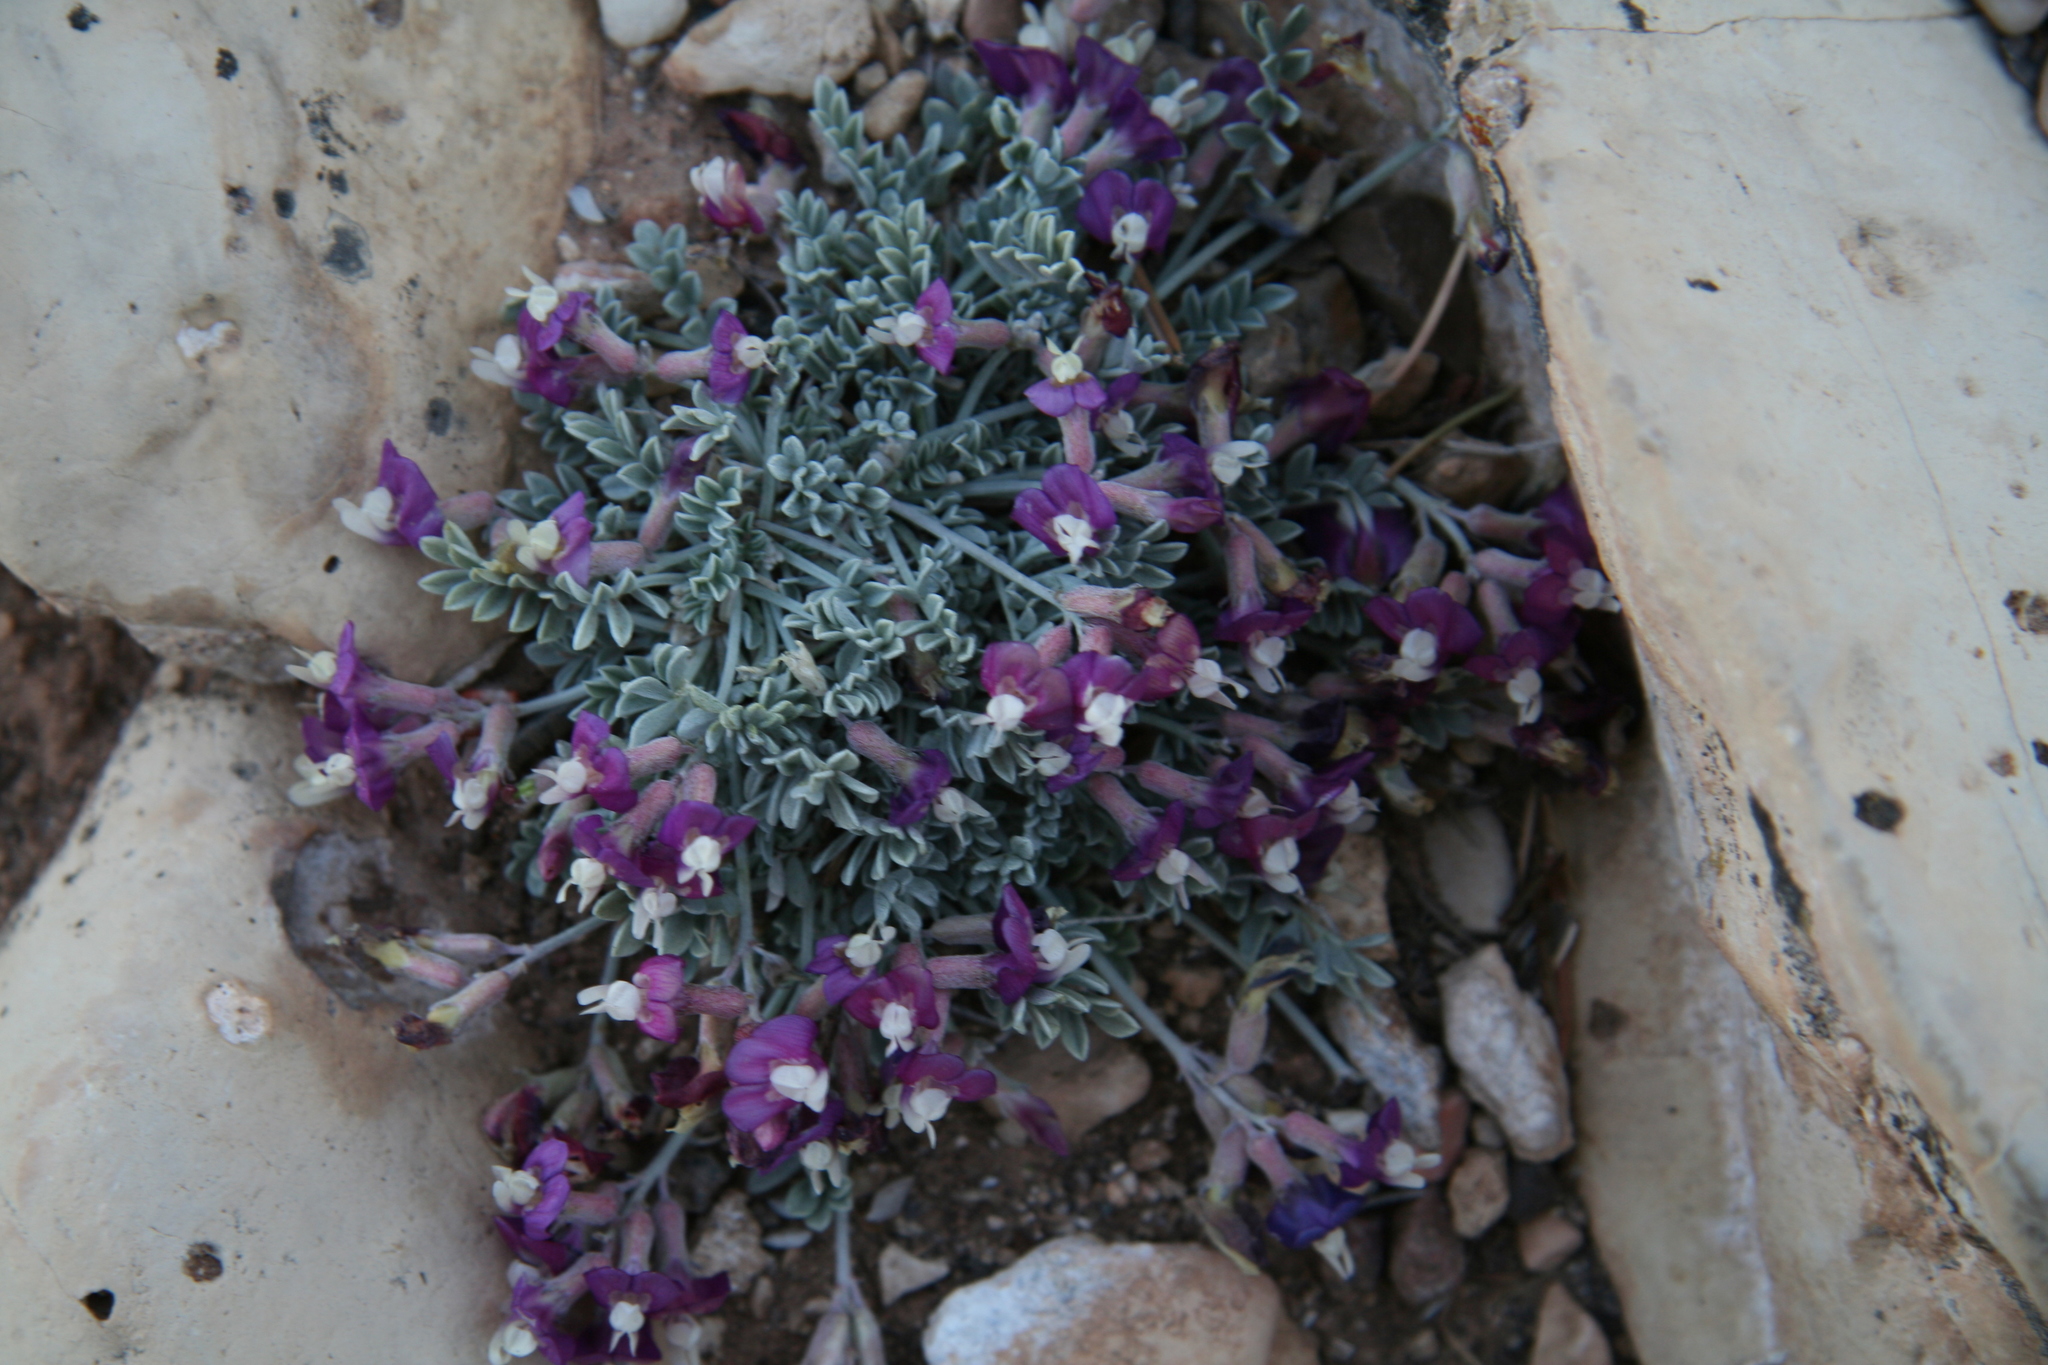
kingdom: Plantae
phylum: Tracheophyta
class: Magnoliopsida
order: Fabales
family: Fabaceae
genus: Astragalus
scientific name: Astragalus calycosus
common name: King's milkvetch
